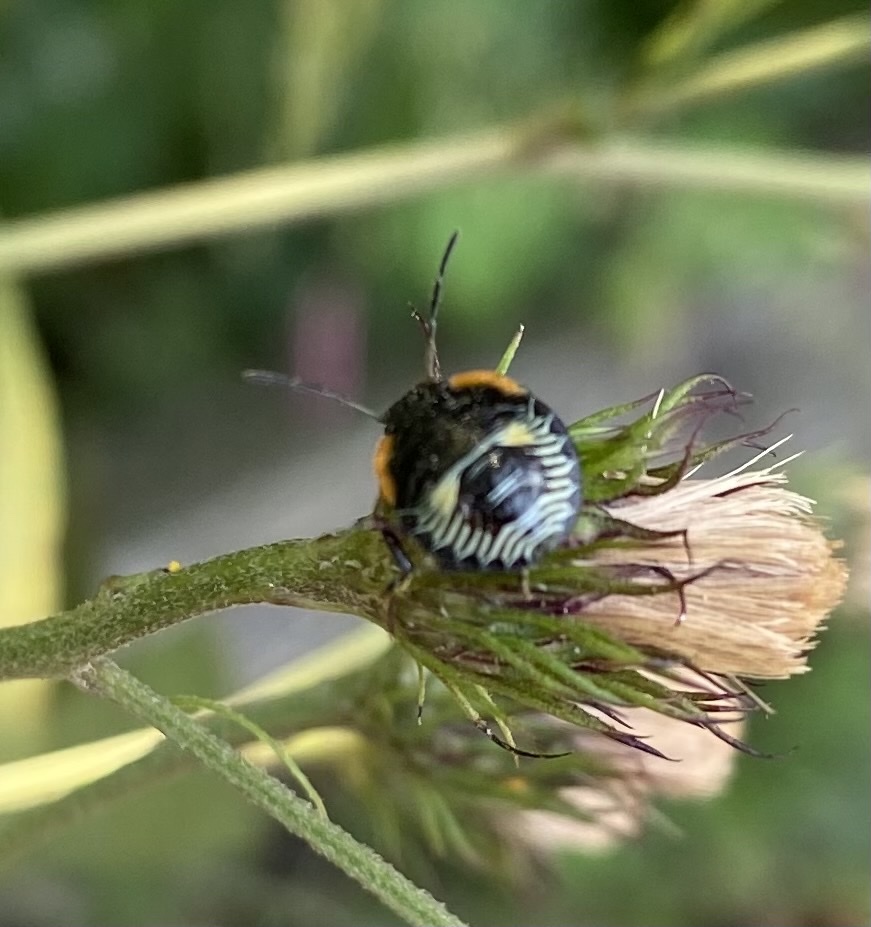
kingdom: Animalia
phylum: Arthropoda
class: Insecta
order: Hemiptera
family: Pentatomidae
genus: Chinavia
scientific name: Chinavia hilaris
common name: Green stink bug
